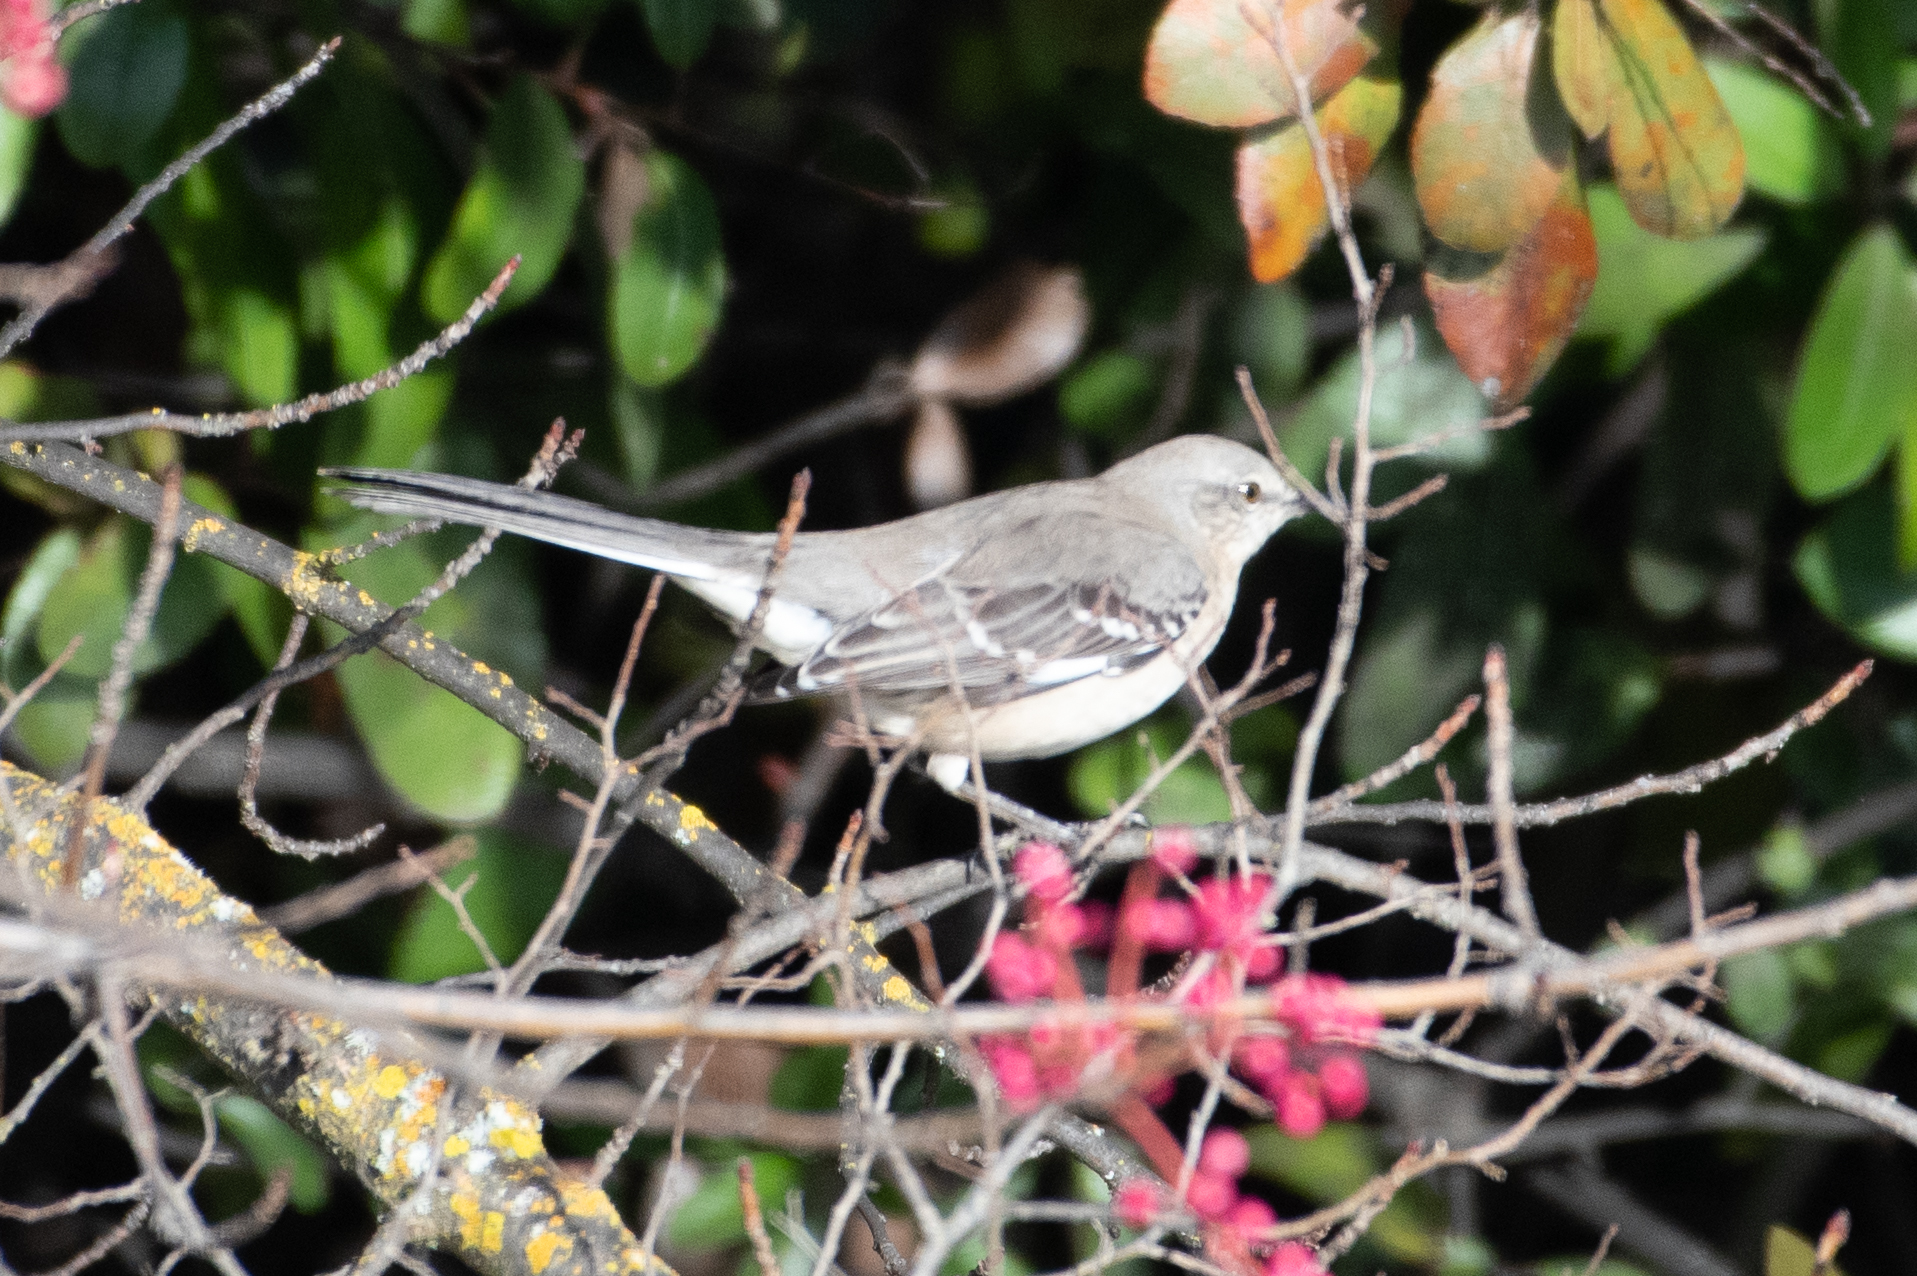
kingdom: Animalia
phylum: Chordata
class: Aves
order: Passeriformes
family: Mimidae
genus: Mimus
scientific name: Mimus polyglottos
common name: Northern mockingbird
